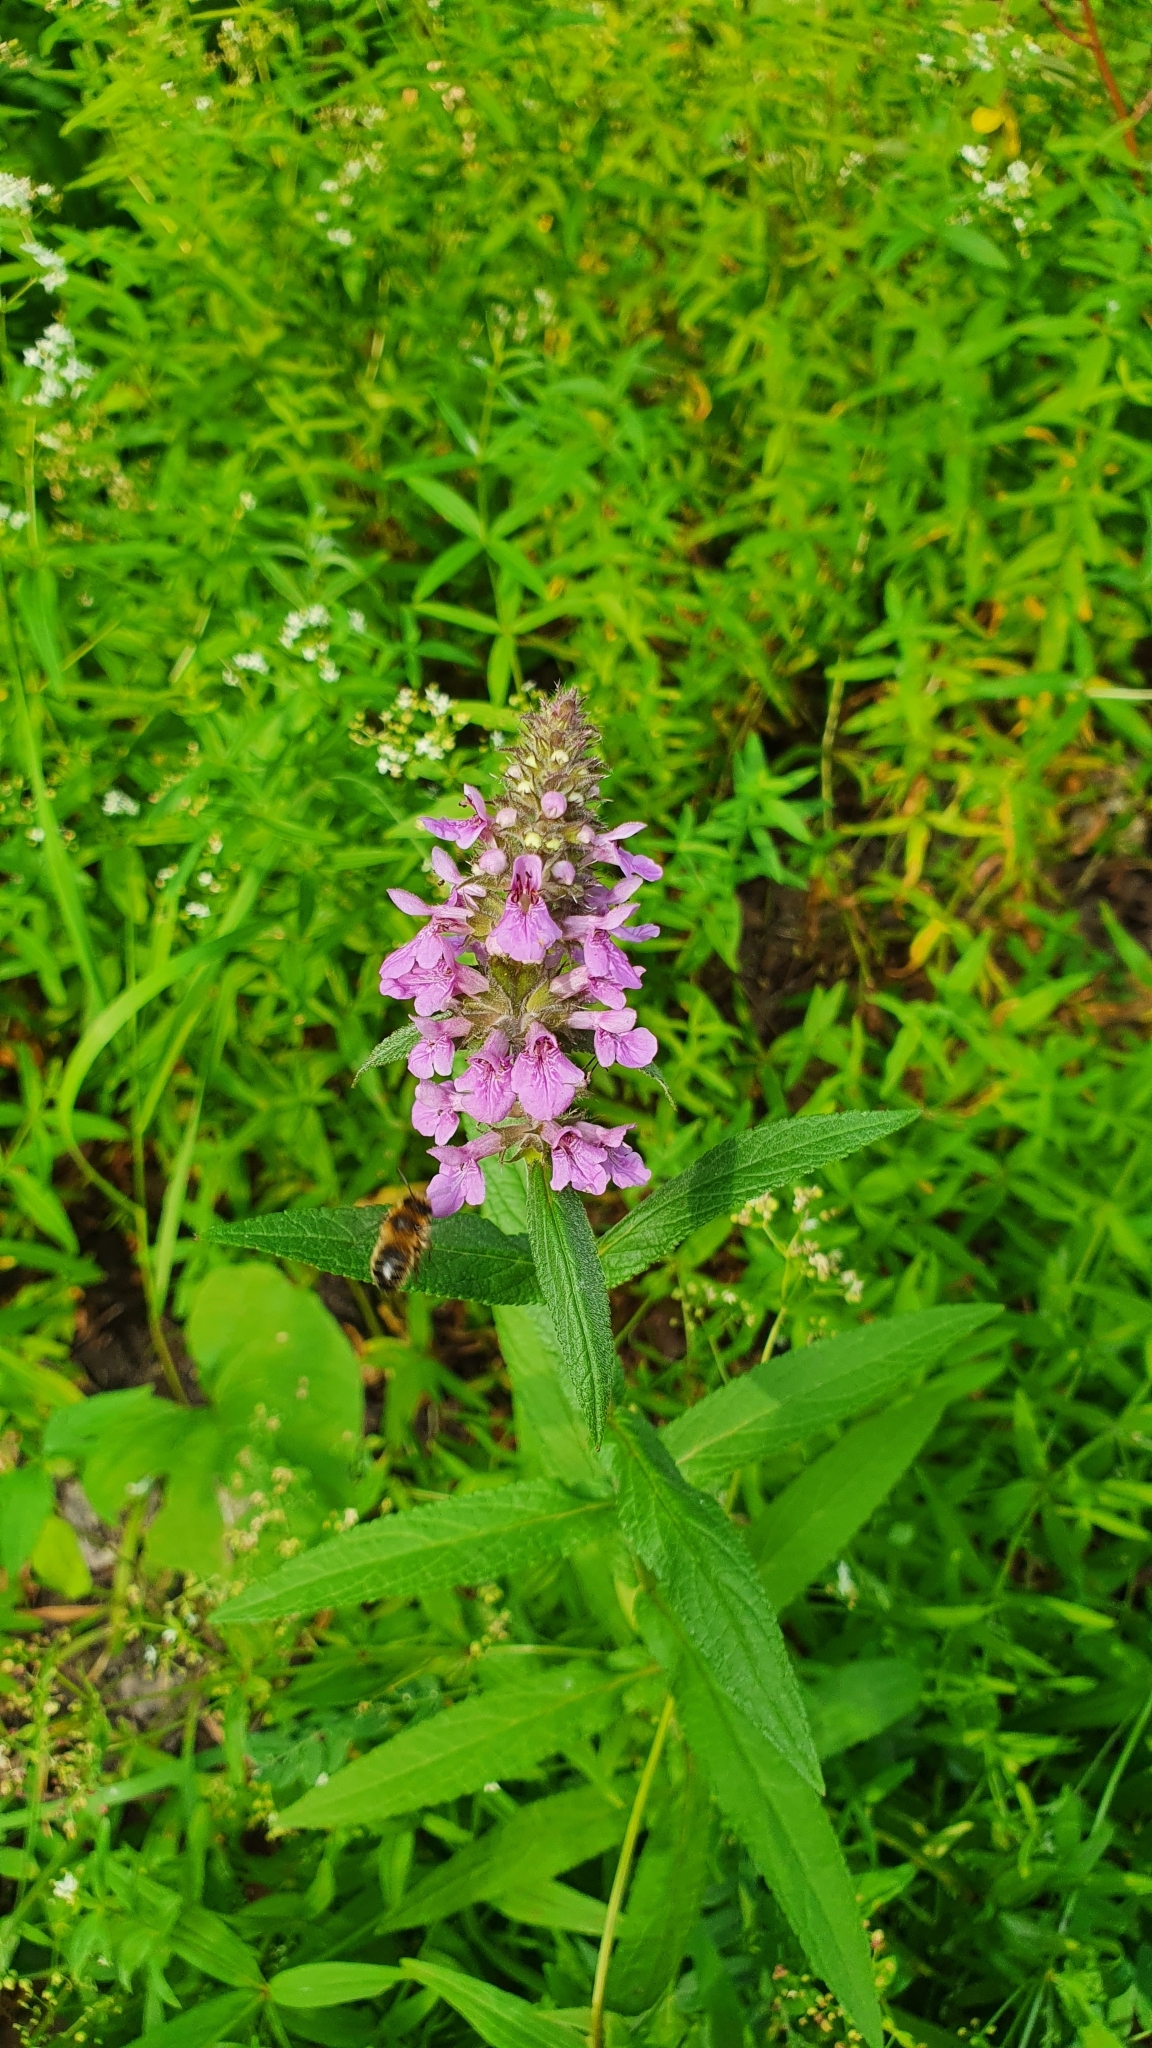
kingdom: Plantae
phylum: Tracheophyta
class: Magnoliopsida
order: Lamiales
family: Lamiaceae
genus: Stachys
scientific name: Stachys palustris
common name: Marsh woundwort
